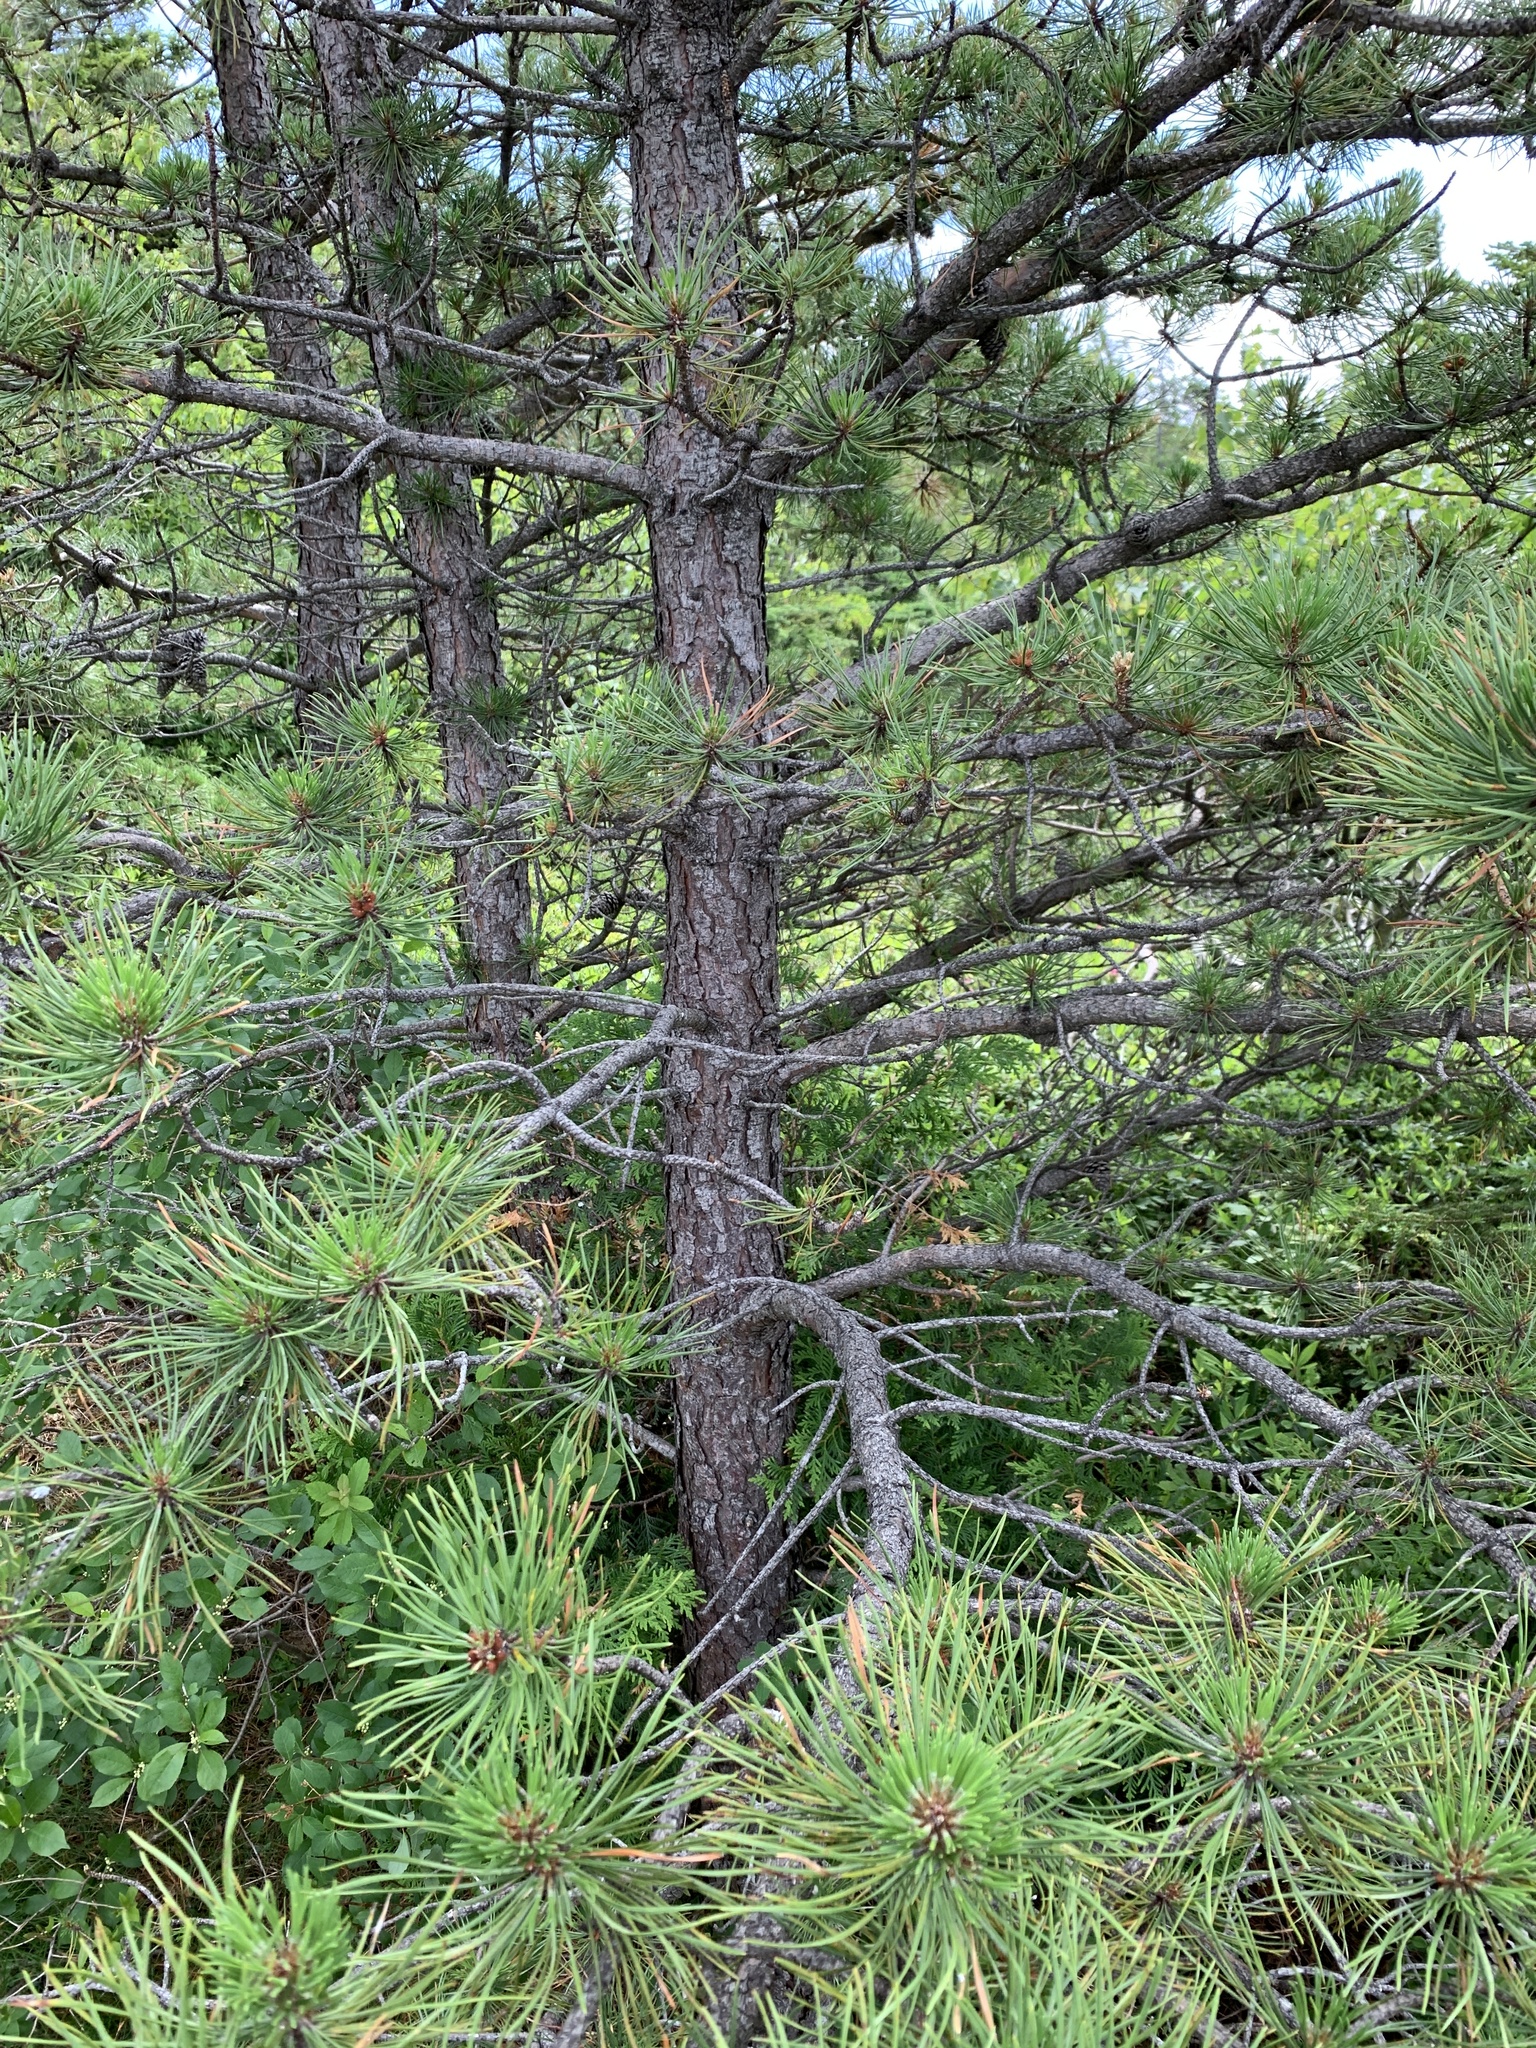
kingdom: Plantae
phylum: Tracheophyta
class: Pinopsida
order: Pinales
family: Pinaceae
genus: Pinus
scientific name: Pinus rigida
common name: Pitch pine
